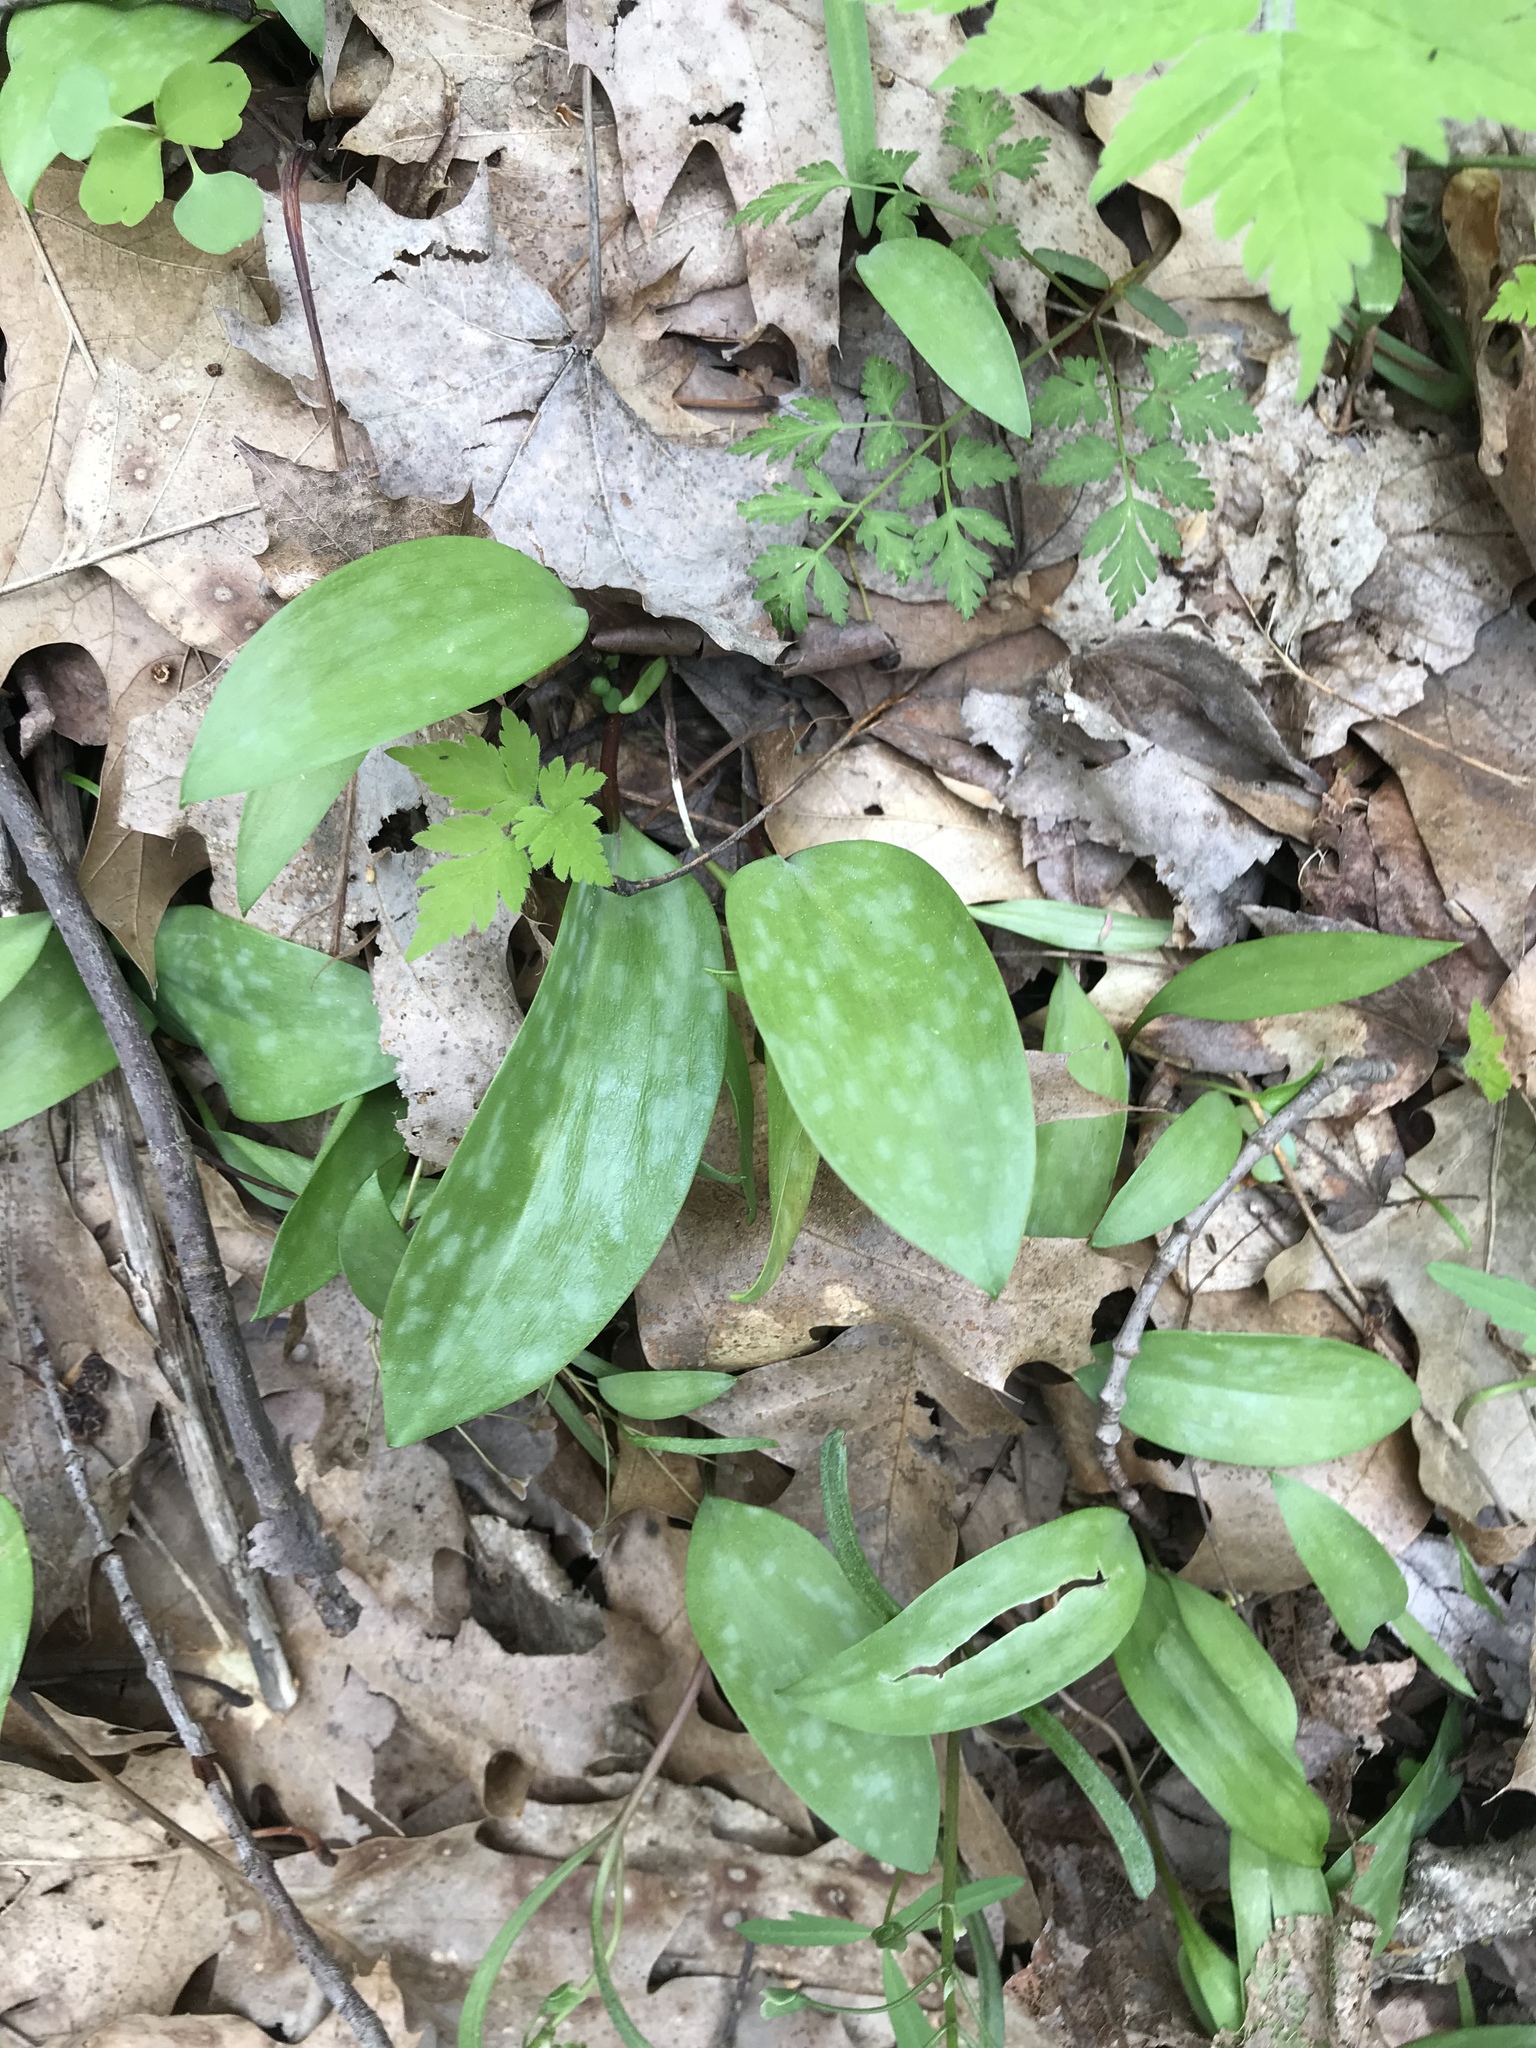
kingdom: Plantae
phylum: Tracheophyta
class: Liliopsida
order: Liliales
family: Liliaceae
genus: Erythronium
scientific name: Erythronium americanum
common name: Yellow adder's-tongue
